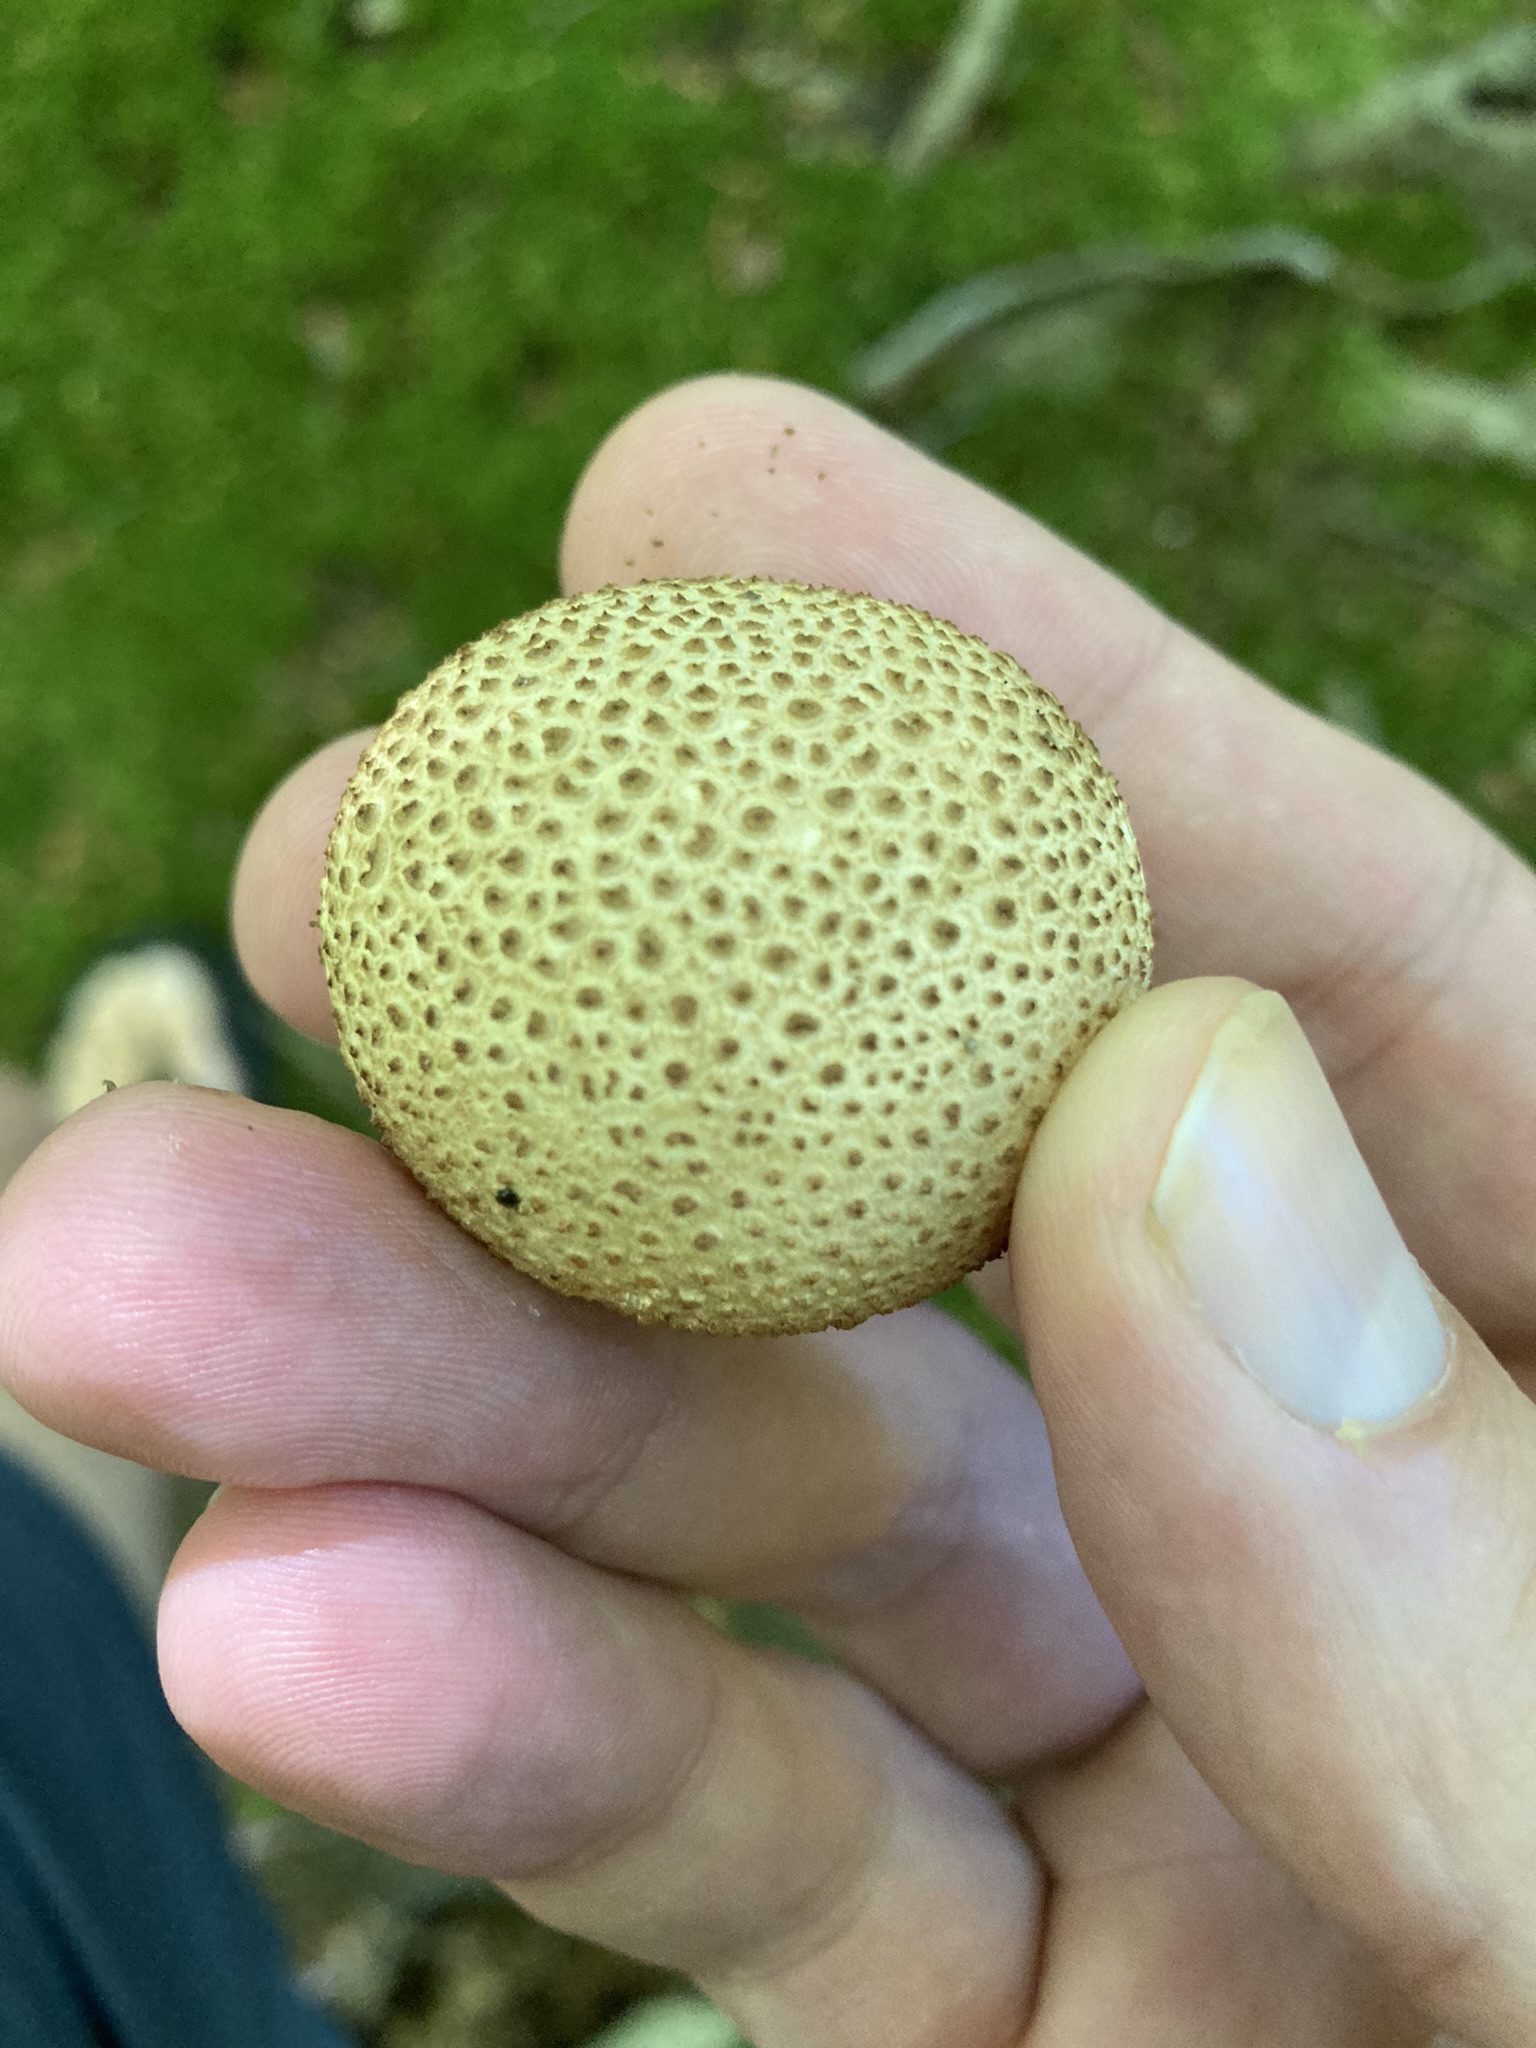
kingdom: Fungi
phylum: Basidiomycota
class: Agaricomycetes
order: Boletales
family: Sclerodermataceae
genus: Scleroderma
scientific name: Scleroderma citrinum
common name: Common earthball
